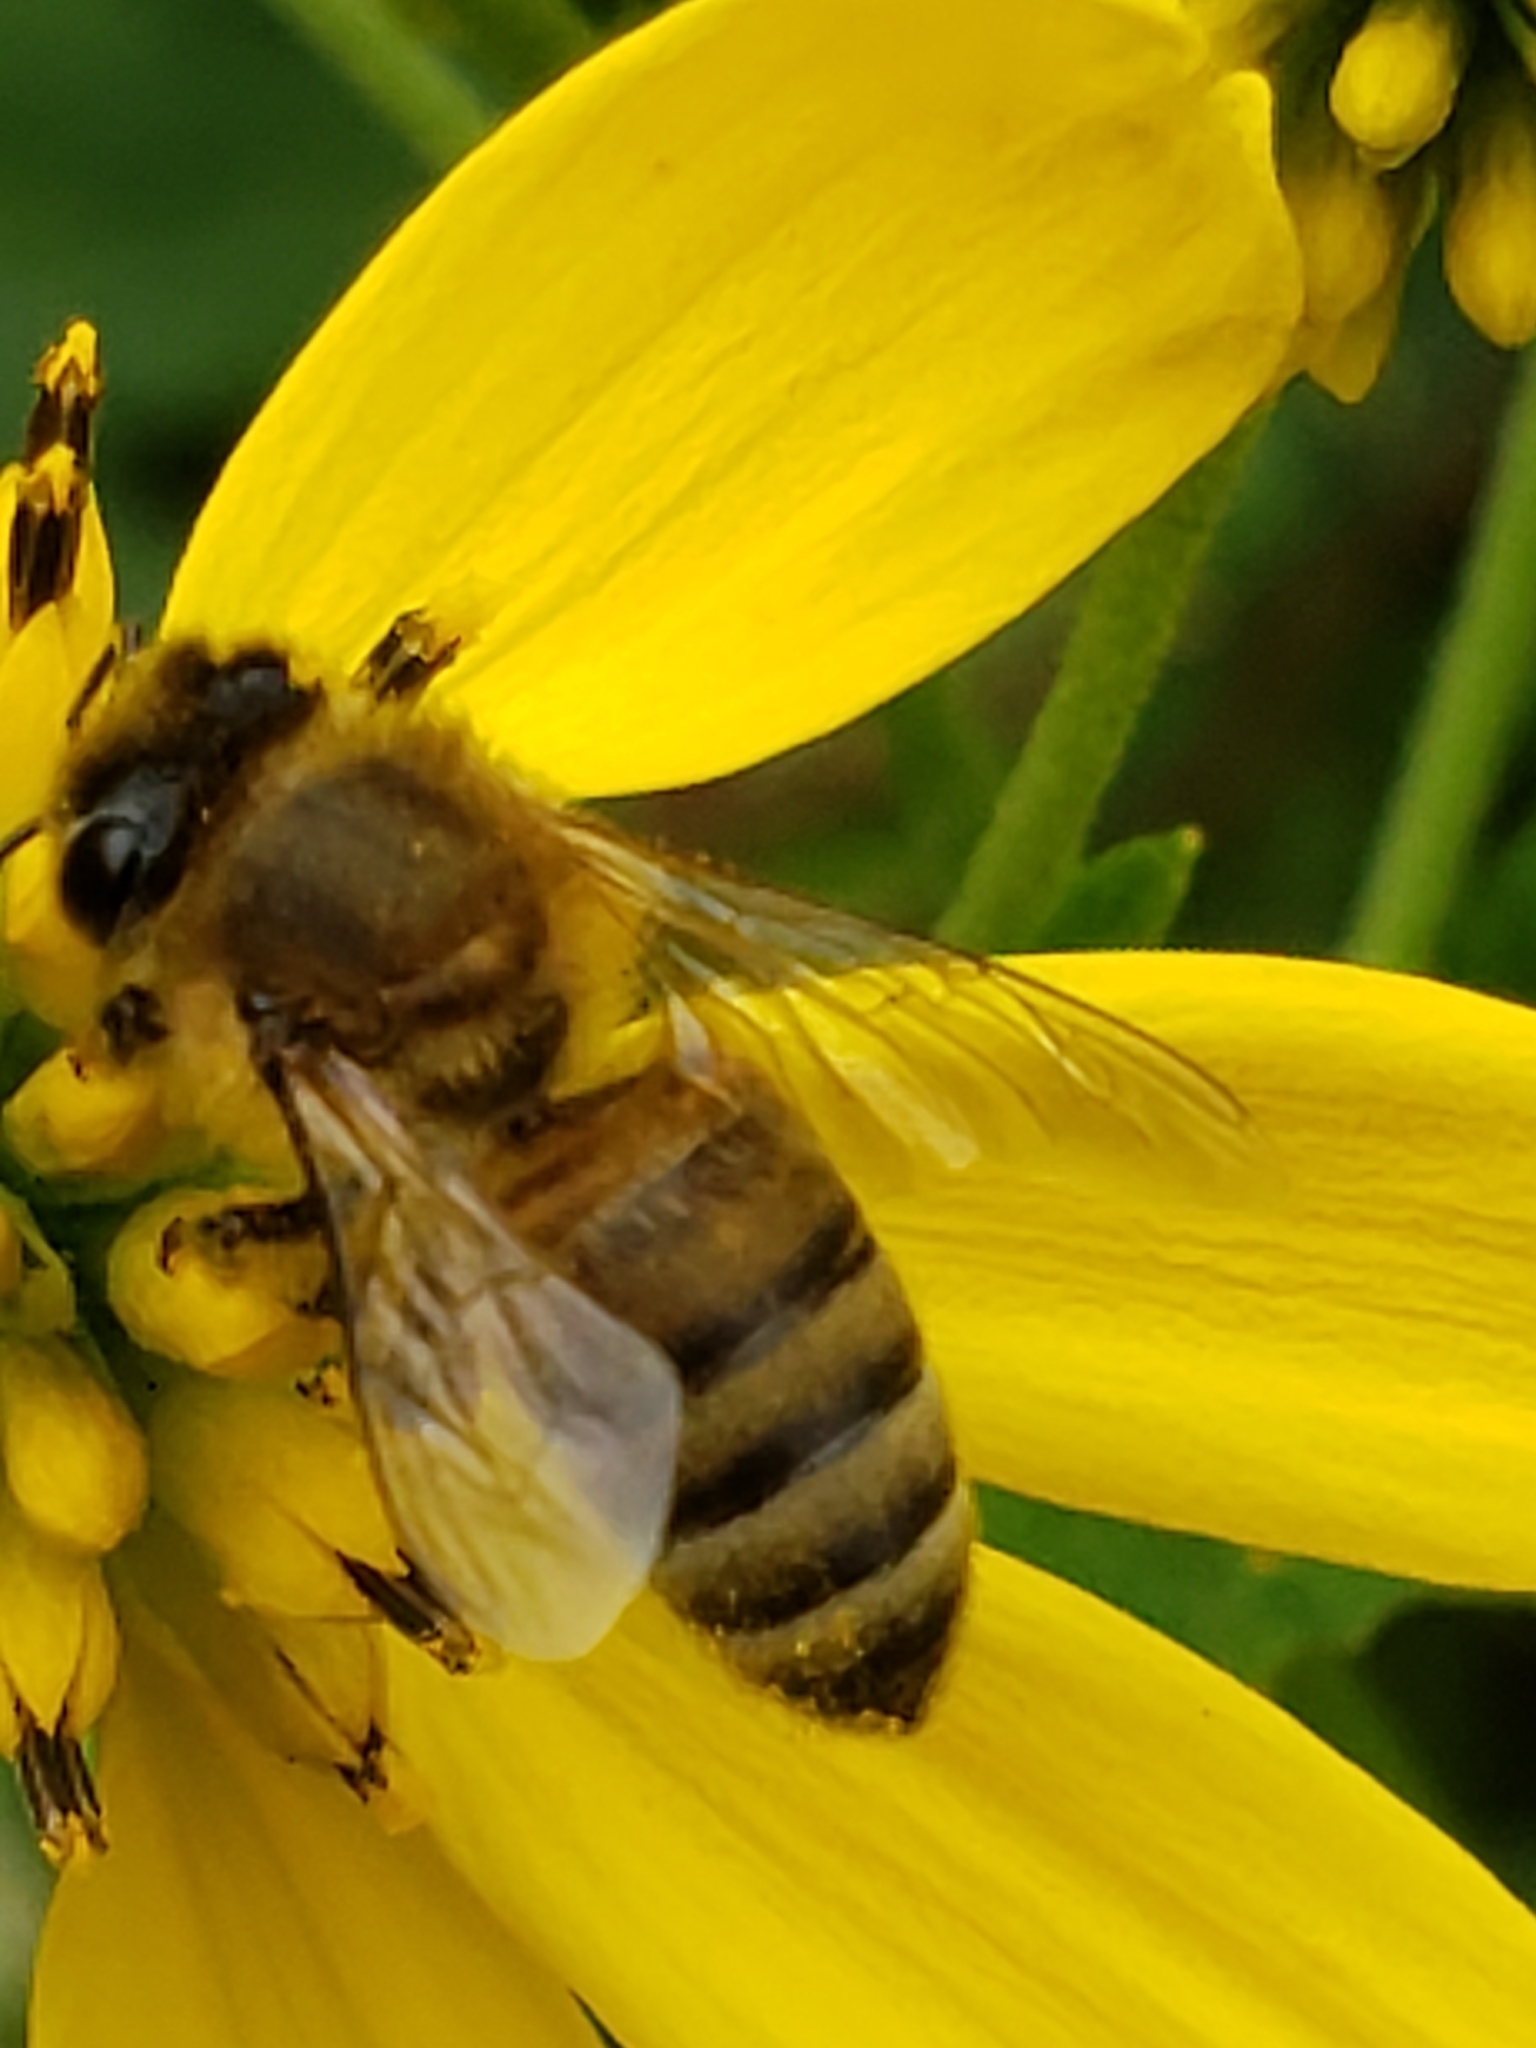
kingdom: Animalia
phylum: Arthropoda
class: Insecta
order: Hymenoptera
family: Apidae
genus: Apis
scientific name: Apis mellifera
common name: Honey bee
